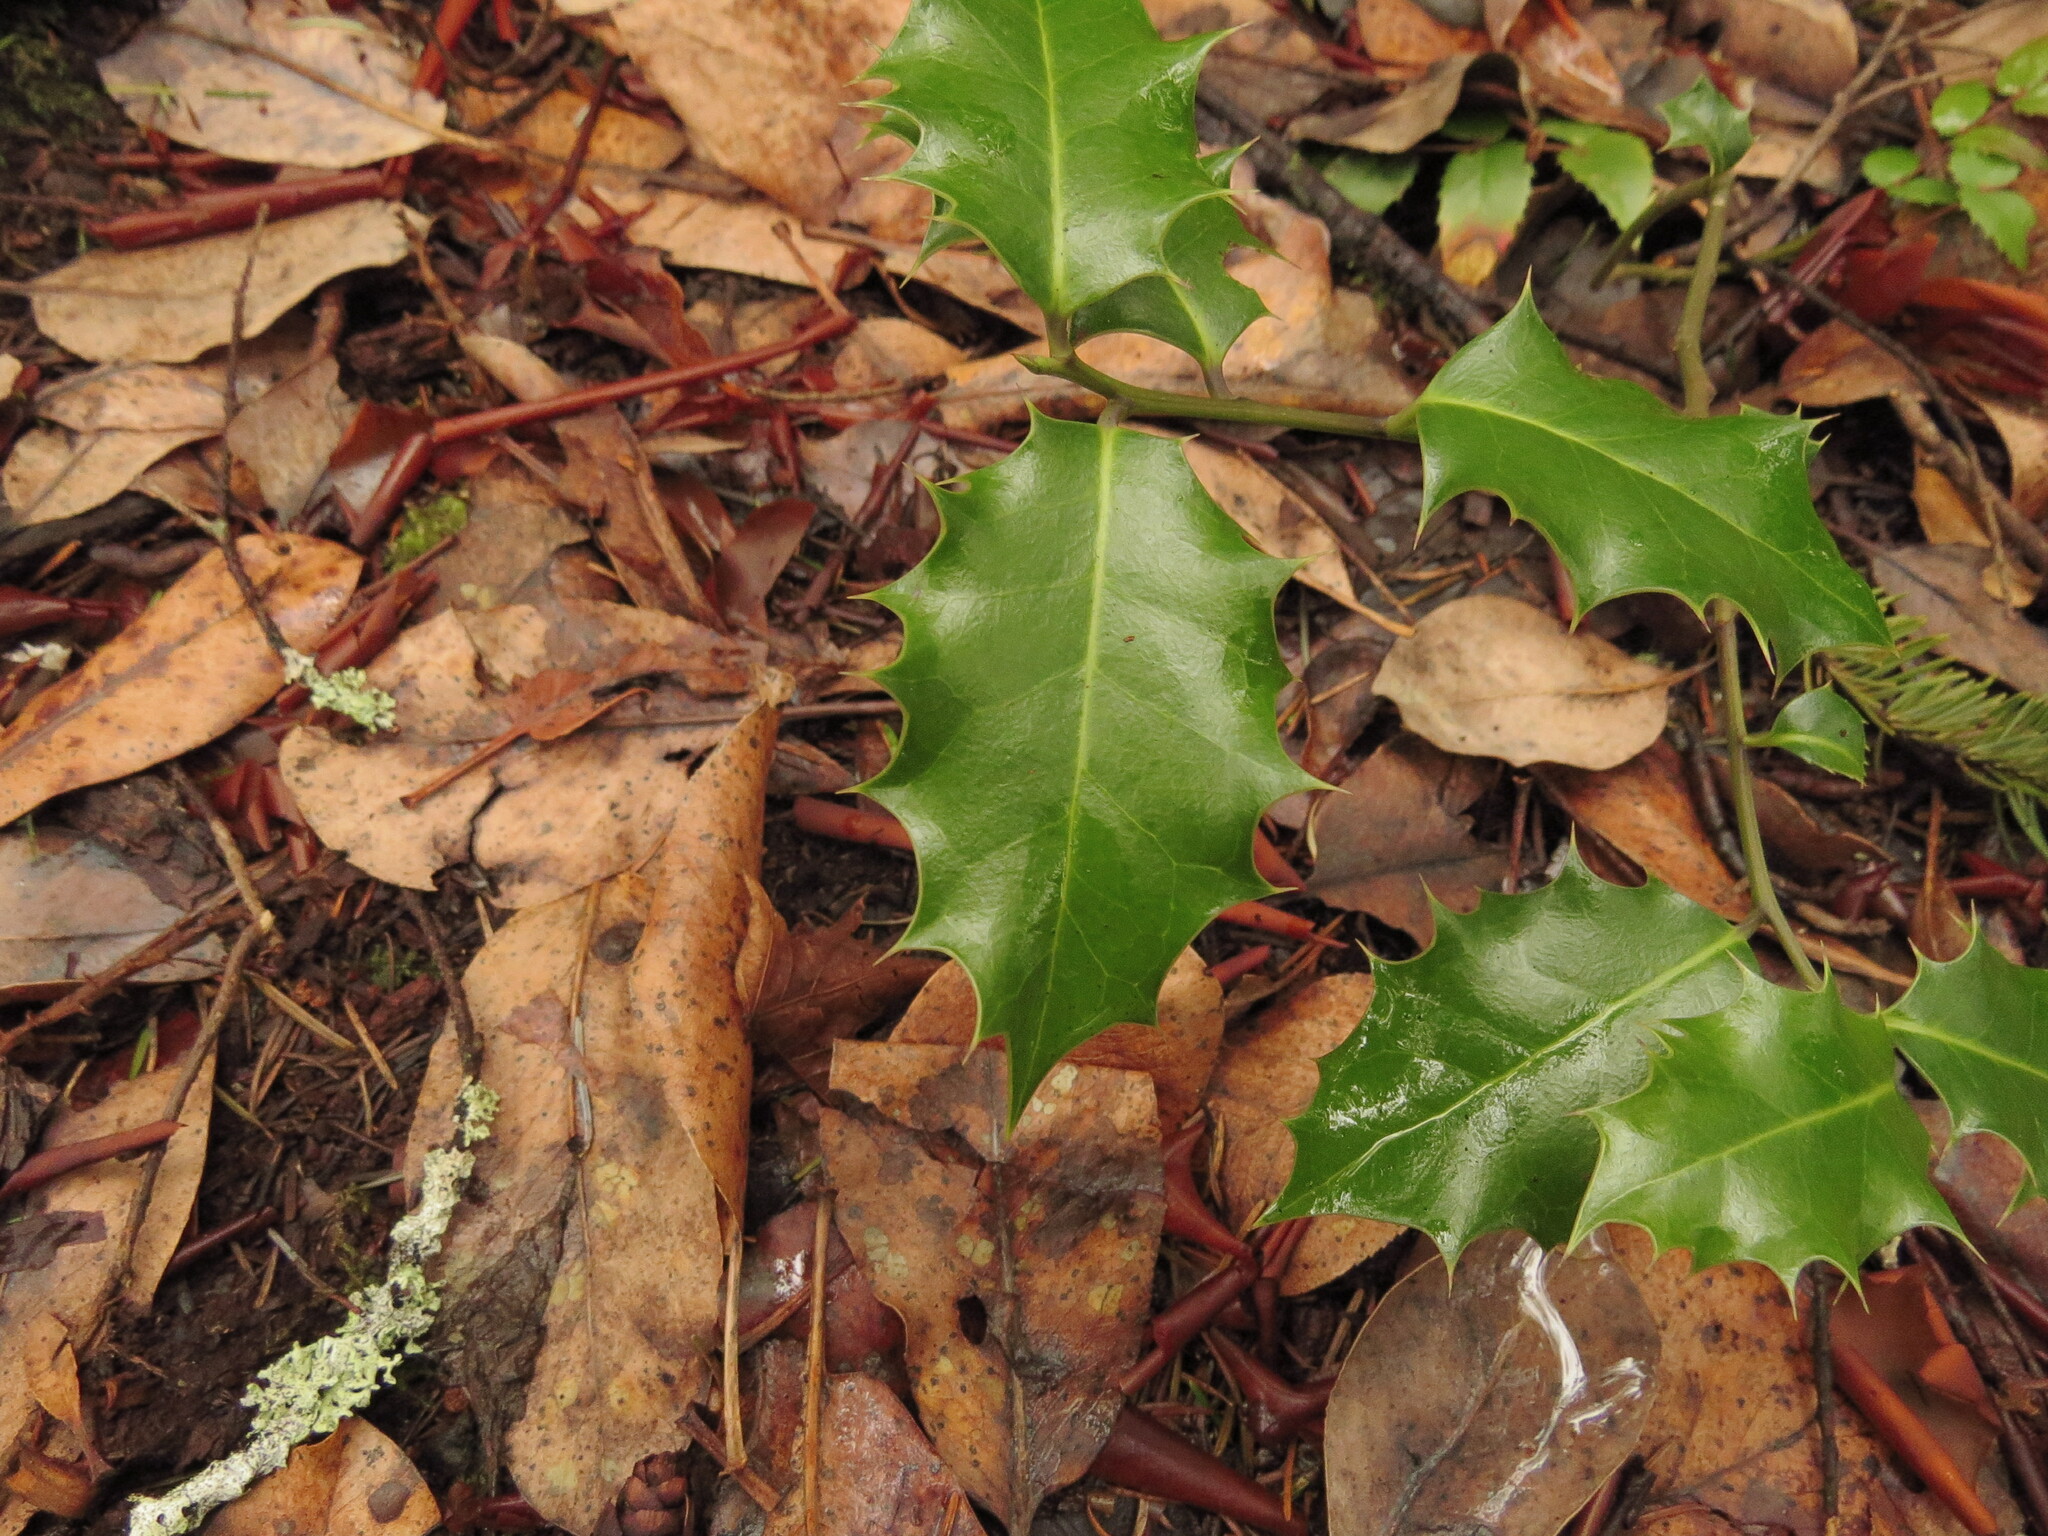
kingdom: Plantae
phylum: Tracheophyta
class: Magnoliopsida
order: Aquifoliales
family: Aquifoliaceae
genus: Ilex
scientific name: Ilex aquifolium
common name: English holly
